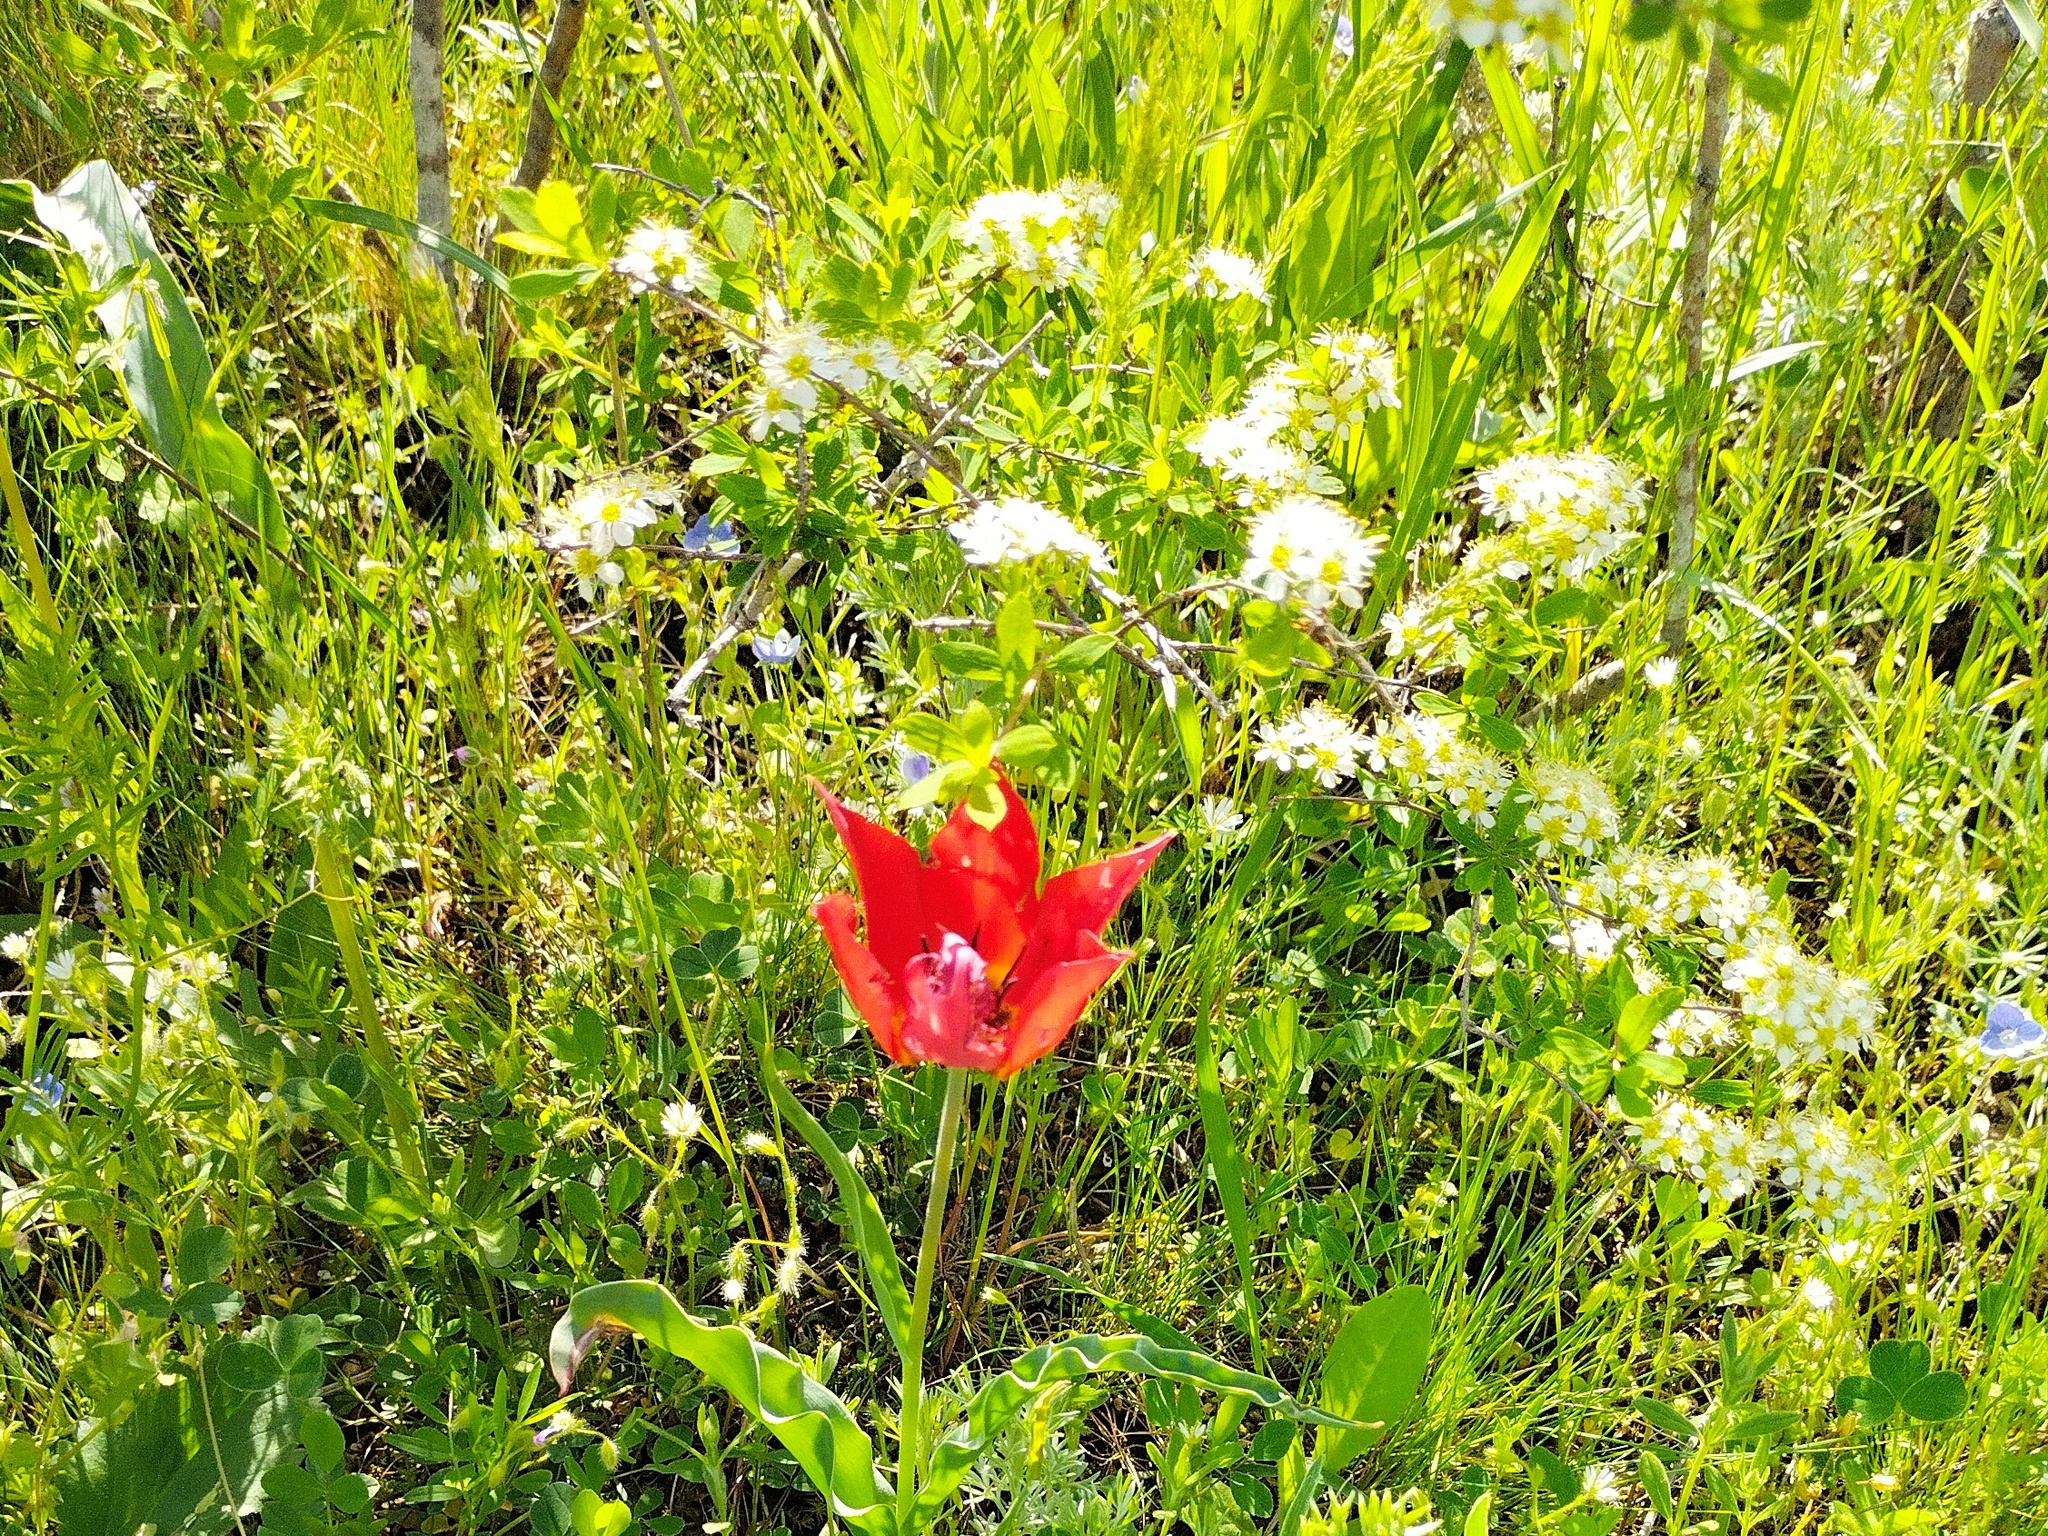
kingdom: Plantae
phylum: Tracheophyta
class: Magnoliopsida
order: Rosales
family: Rosaceae
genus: Spiraea
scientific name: Spiraea hypericifolia
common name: Iberian spirea
